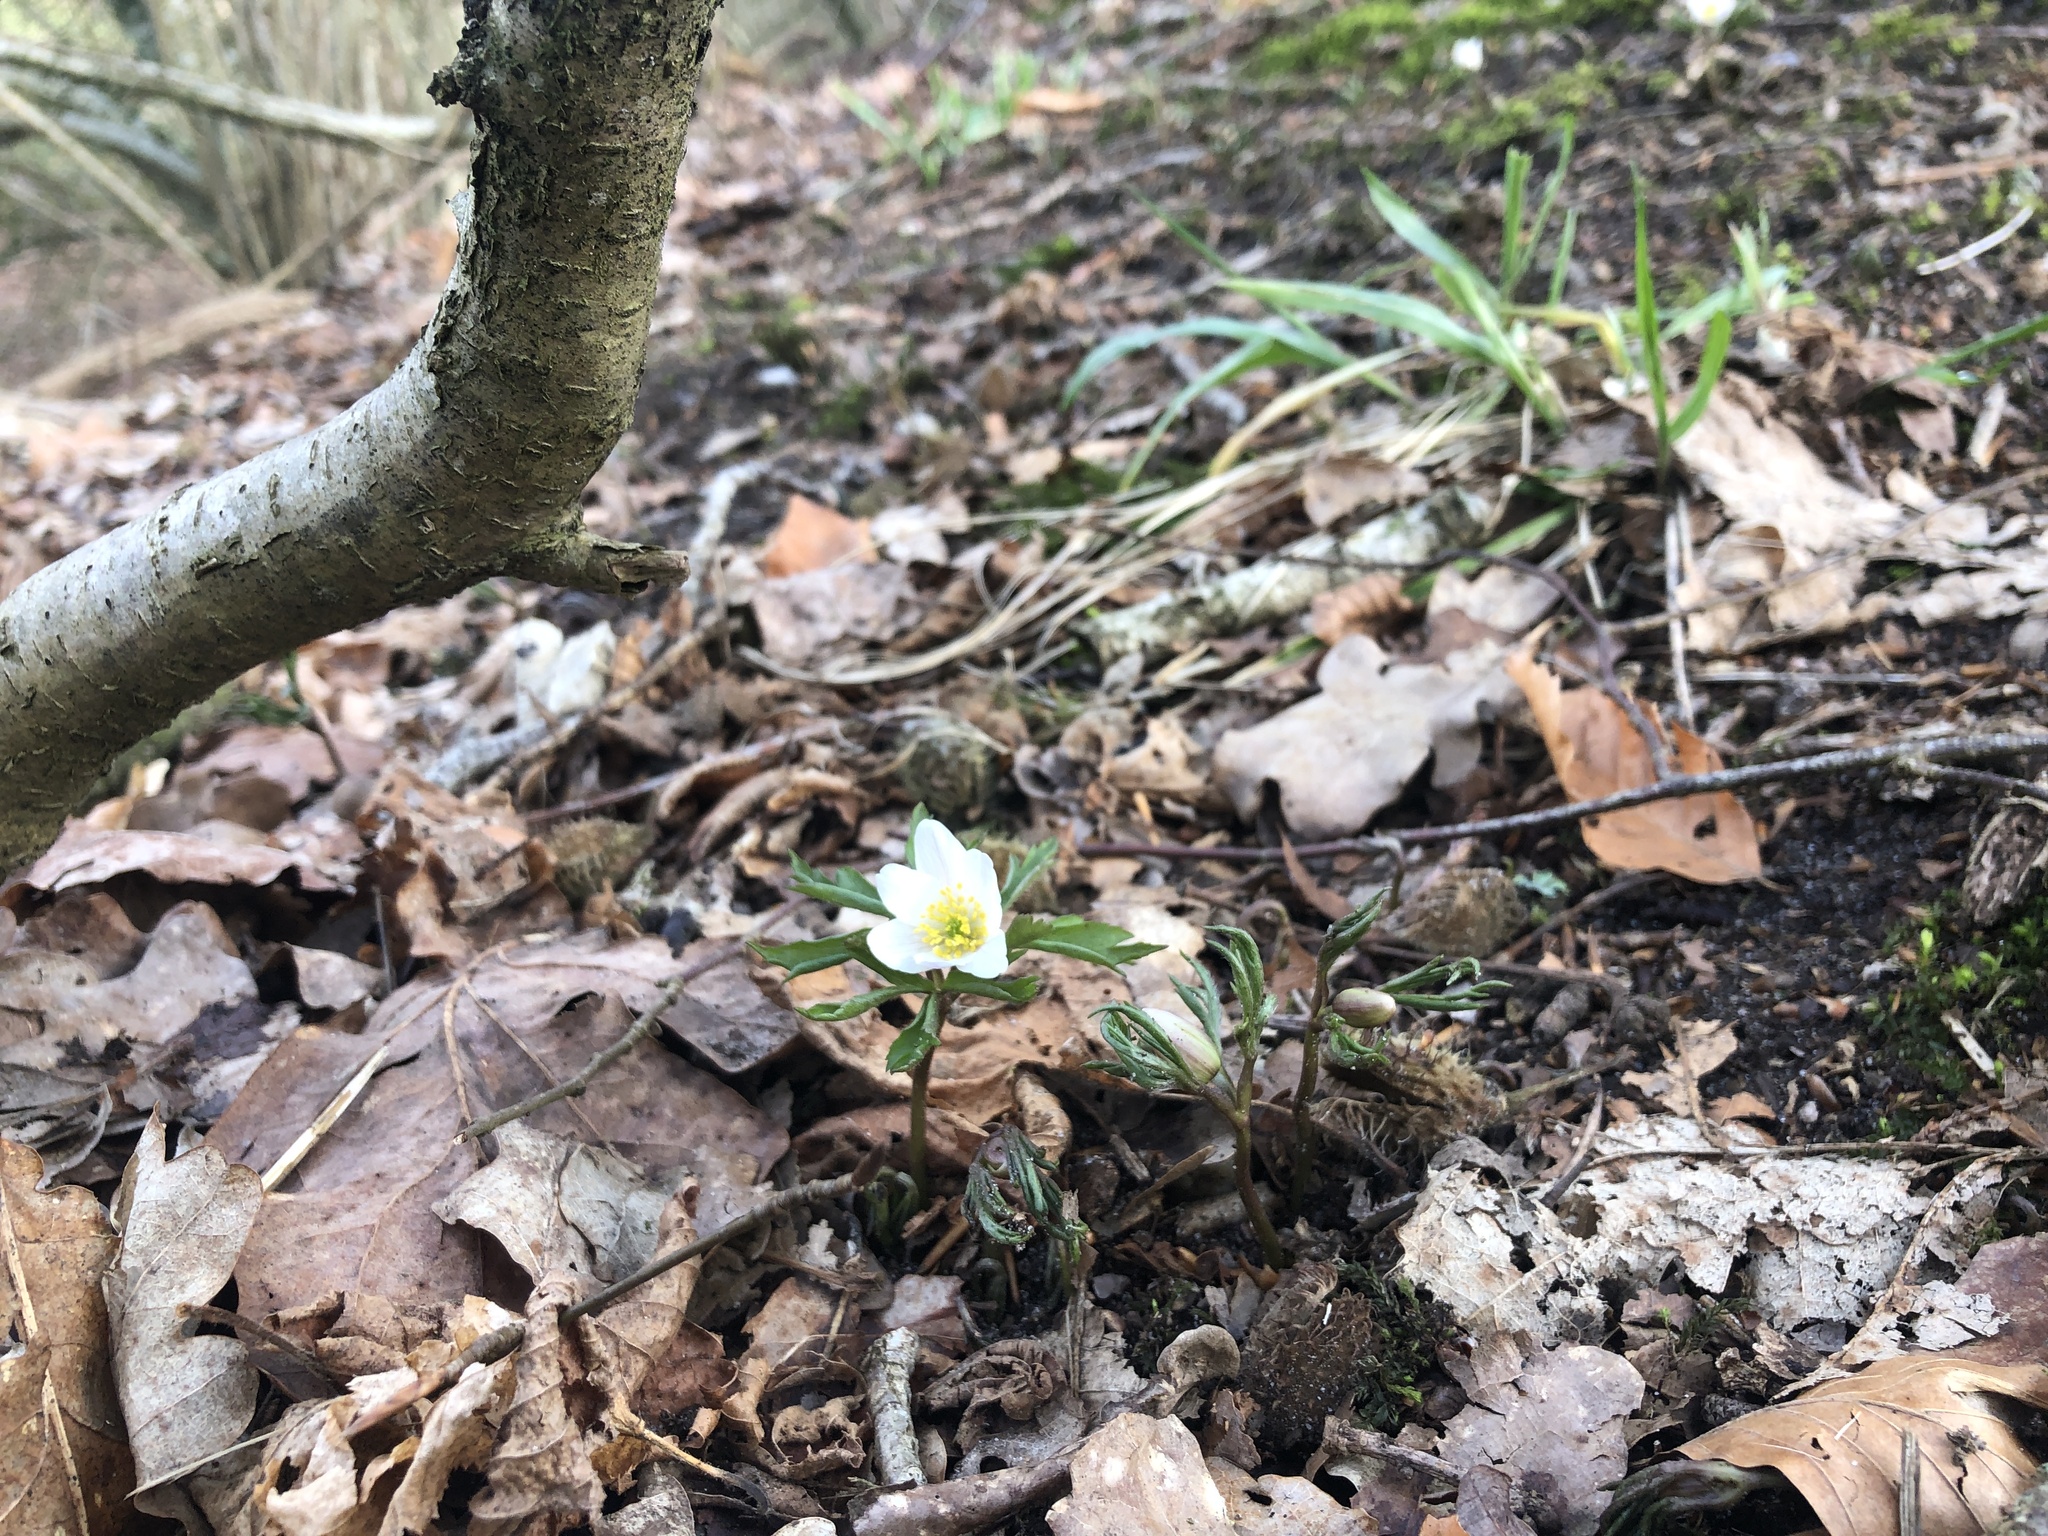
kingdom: Plantae
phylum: Tracheophyta
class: Magnoliopsida
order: Ranunculales
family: Ranunculaceae
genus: Anemone
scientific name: Anemone nemorosa
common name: Wood anemone
